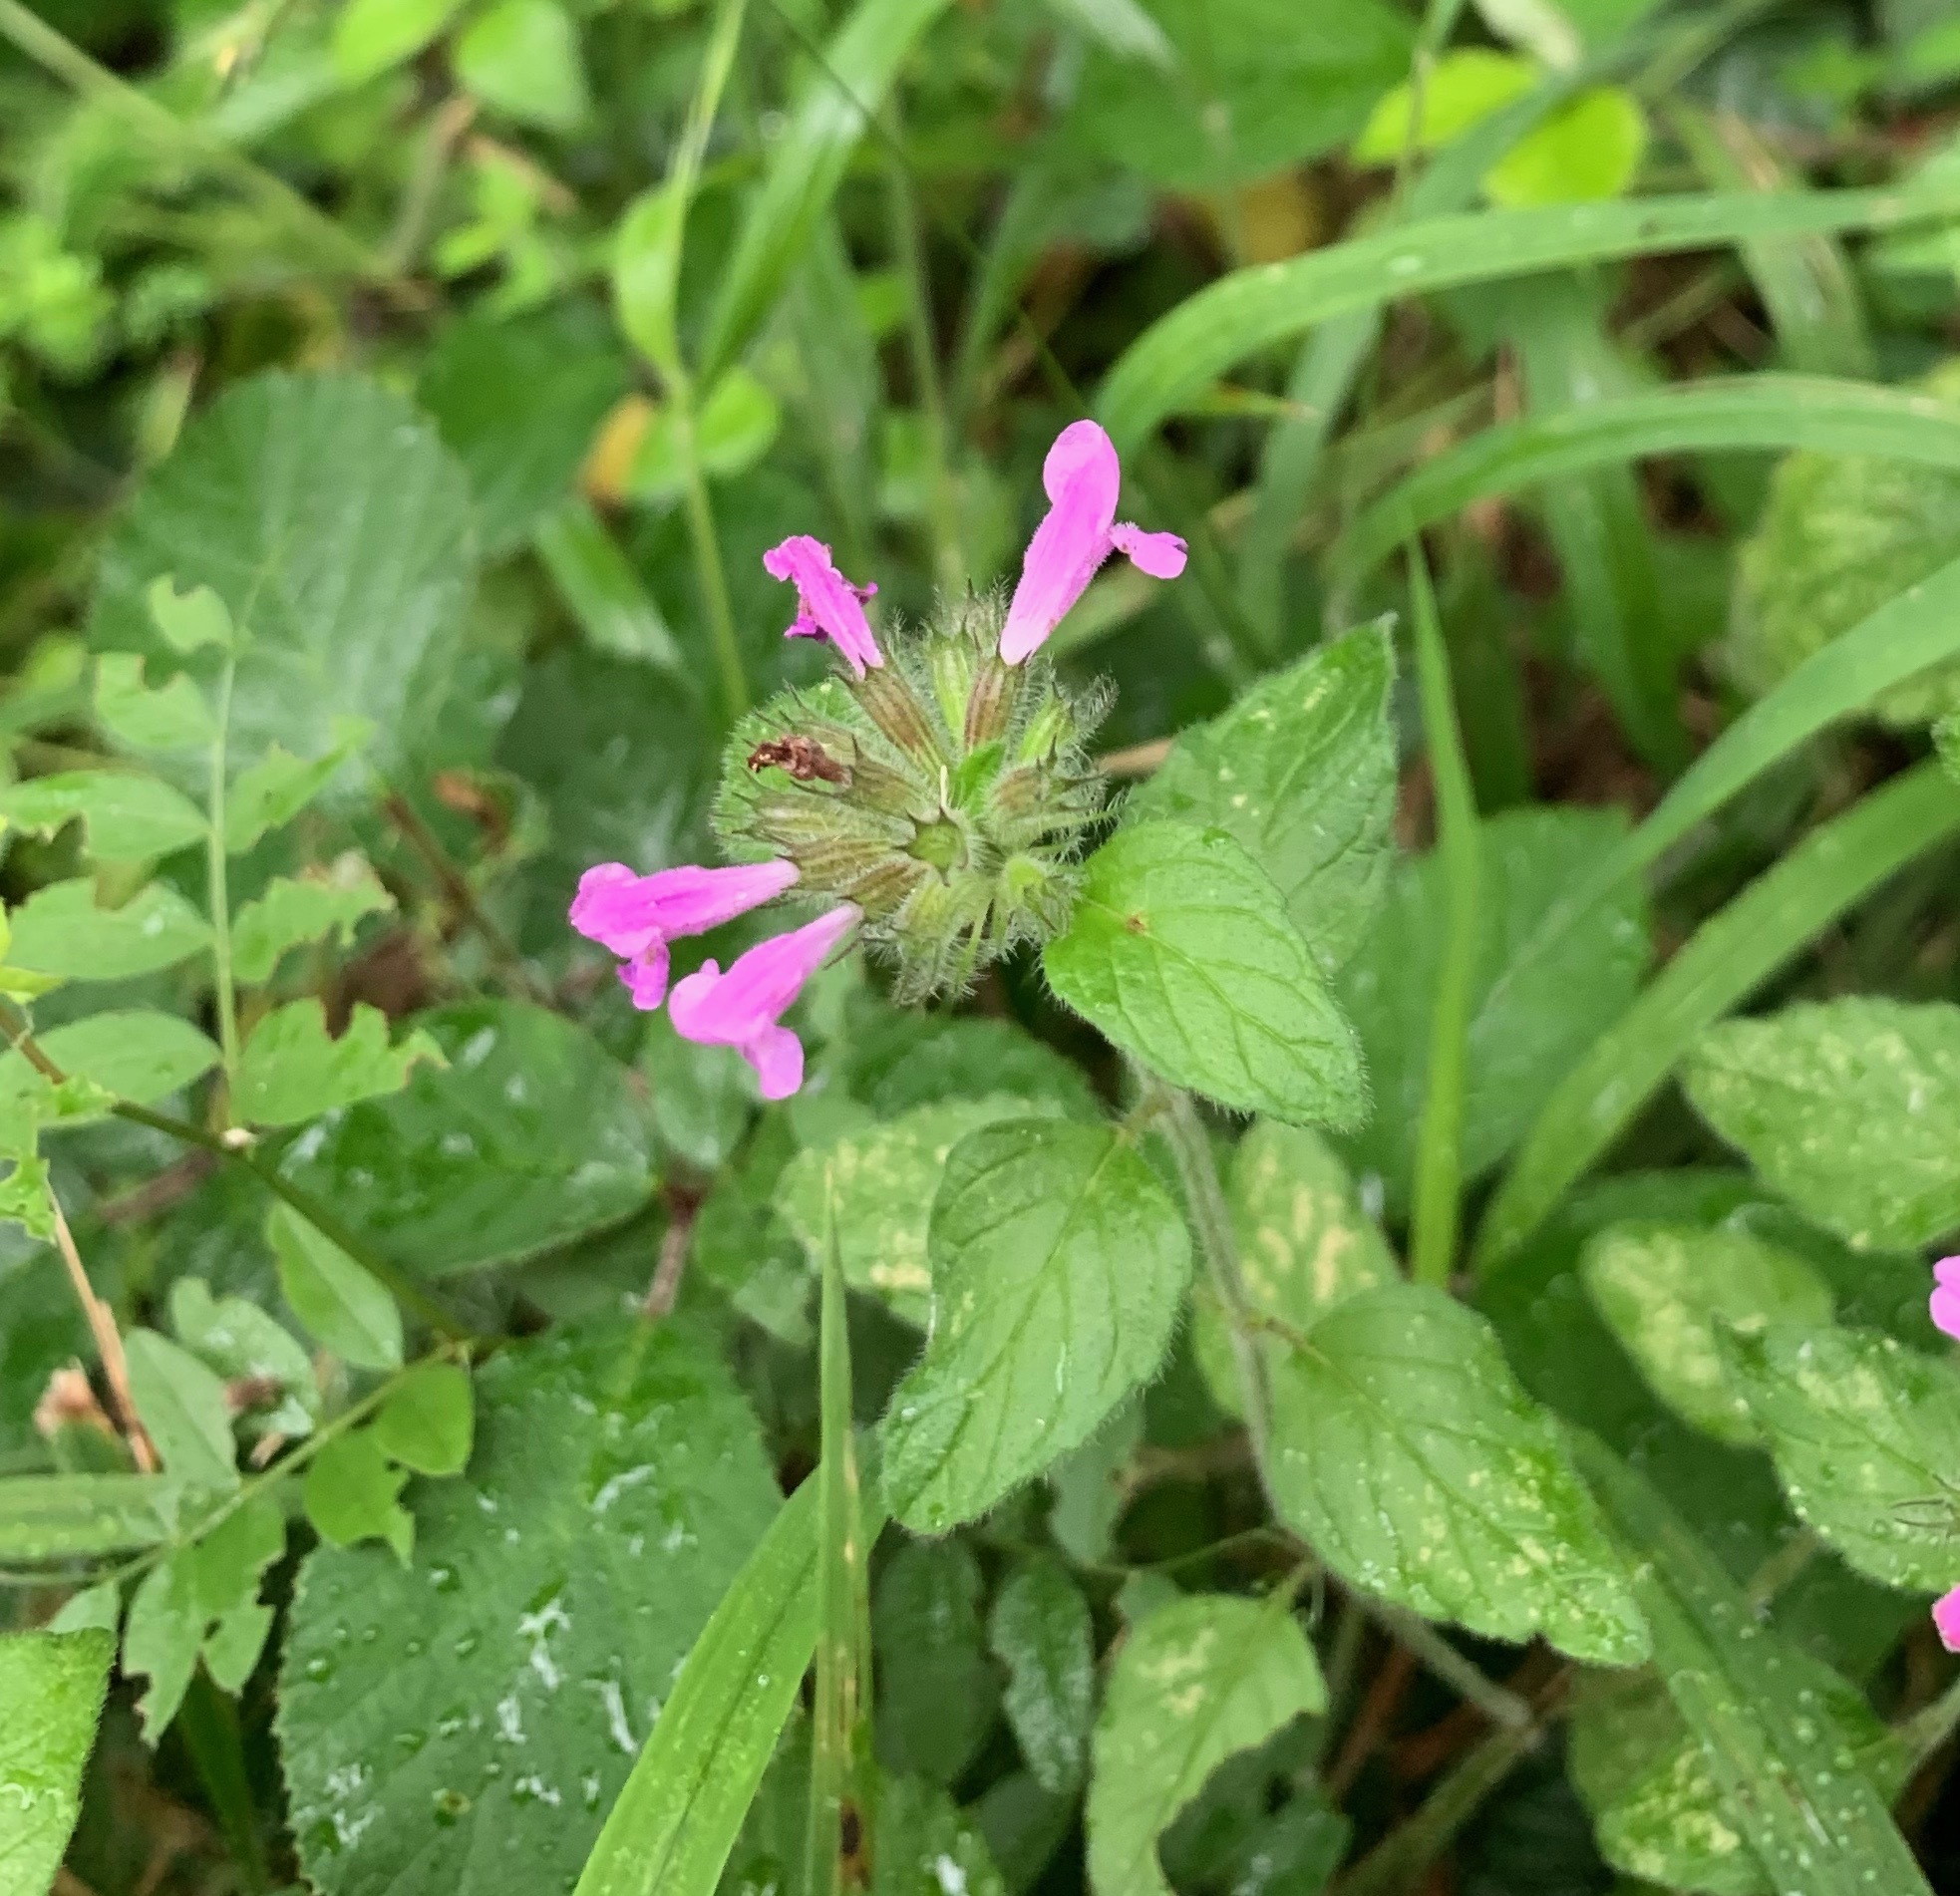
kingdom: Plantae
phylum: Tracheophyta
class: Magnoliopsida
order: Lamiales
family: Lamiaceae
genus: Clinopodium
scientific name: Clinopodium vulgare
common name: Wild basil
